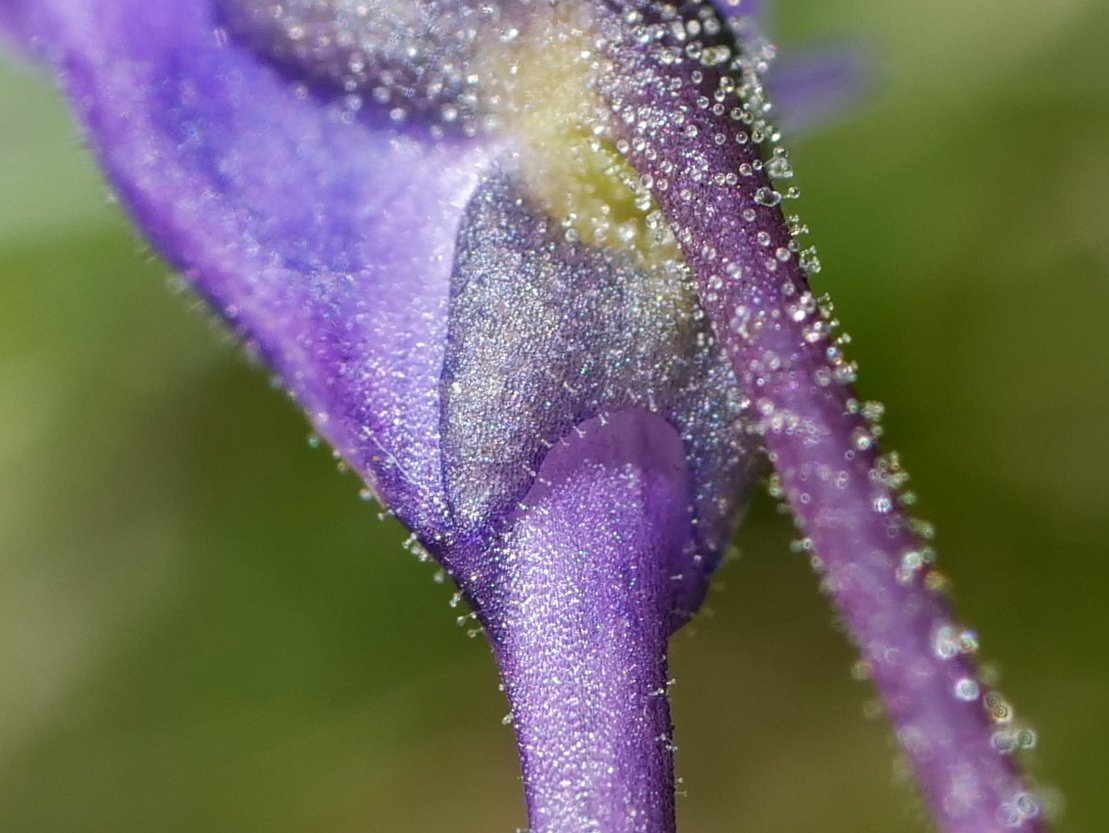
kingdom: Plantae
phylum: Tracheophyta
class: Magnoliopsida
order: Lamiales
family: Lentibulariaceae
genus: Pinguicula
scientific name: Pinguicula vulgaris
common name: Common butterwort
